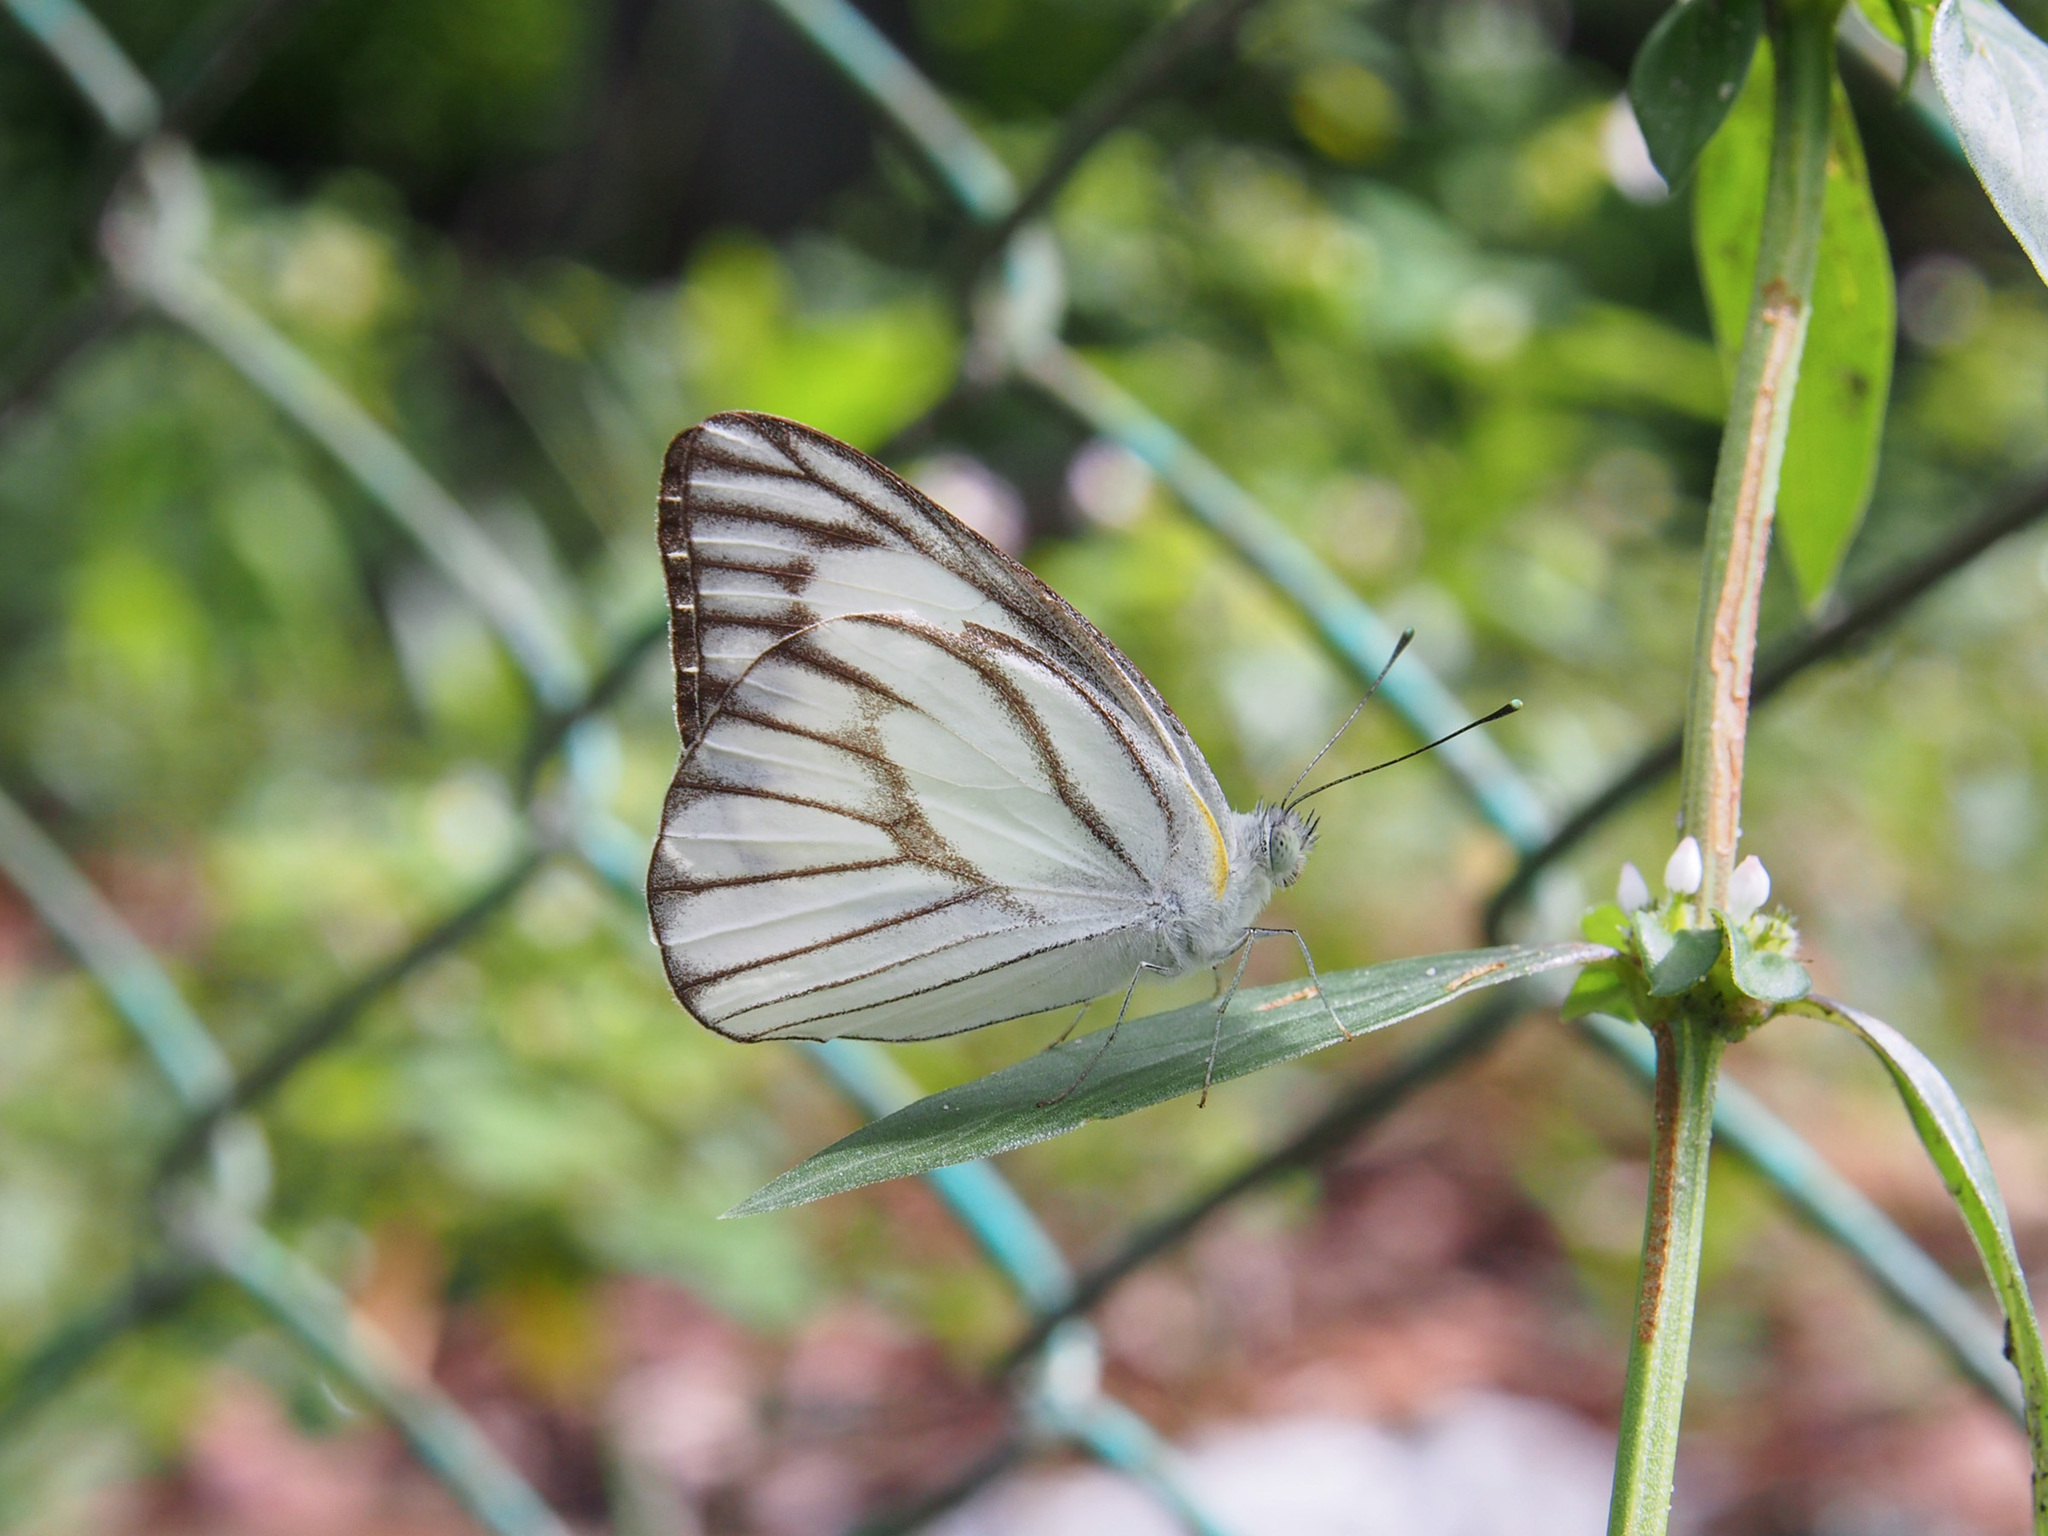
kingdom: Animalia
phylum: Arthropoda
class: Insecta
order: Lepidoptera
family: Pieridae
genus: Appias
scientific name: Appias libythea
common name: Striped albatross
